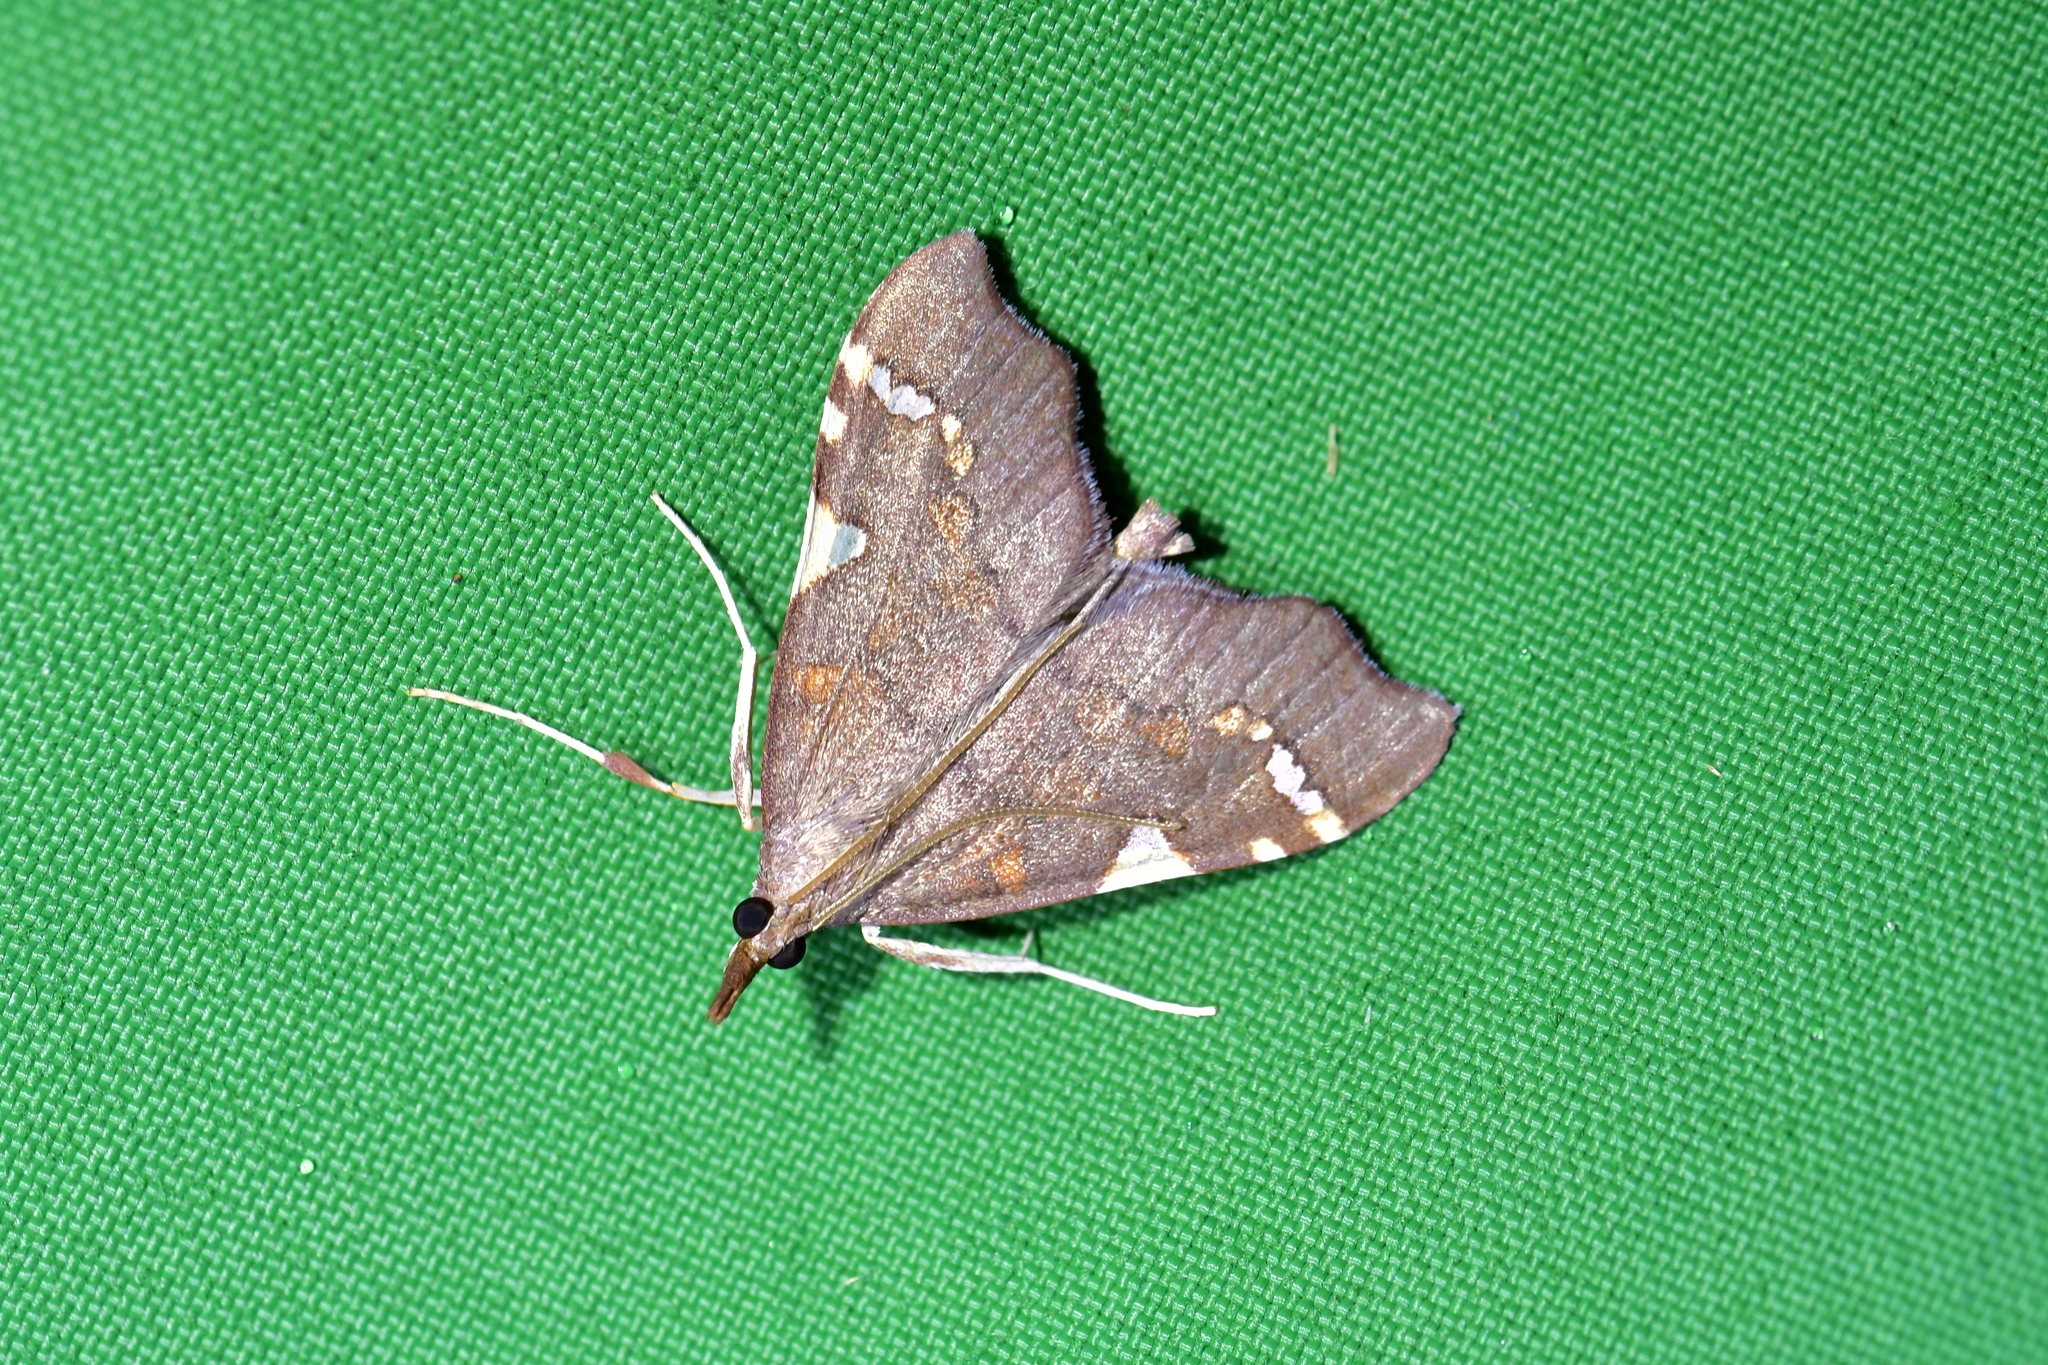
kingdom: Animalia
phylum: Arthropoda
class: Insecta
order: Lepidoptera
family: Crambidae
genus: Deana
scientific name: Deana hybreasalis
